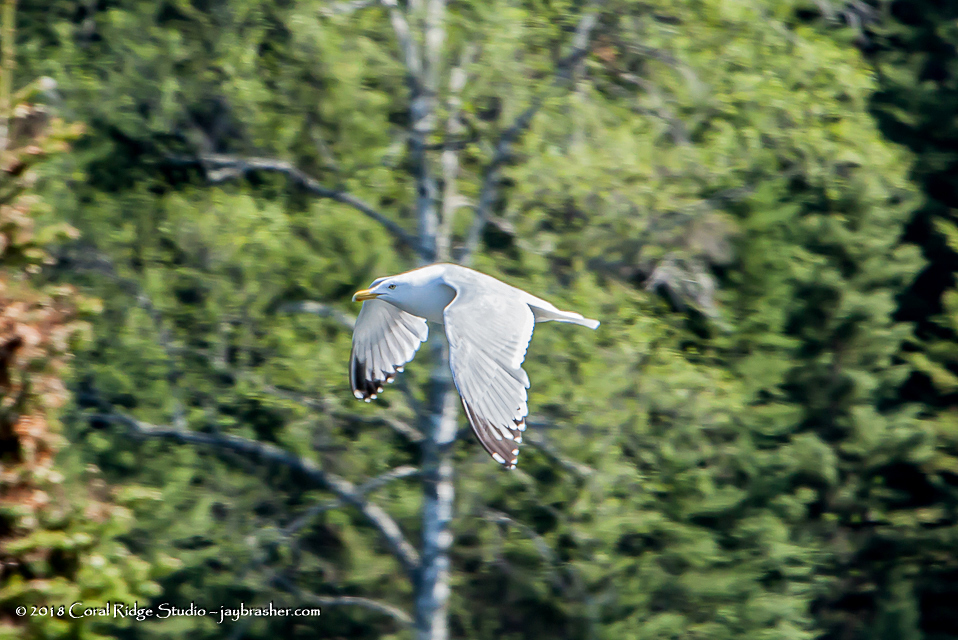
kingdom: Animalia
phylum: Chordata
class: Aves
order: Charadriiformes
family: Laridae
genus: Larus
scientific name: Larus argentatus
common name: Herring gull
